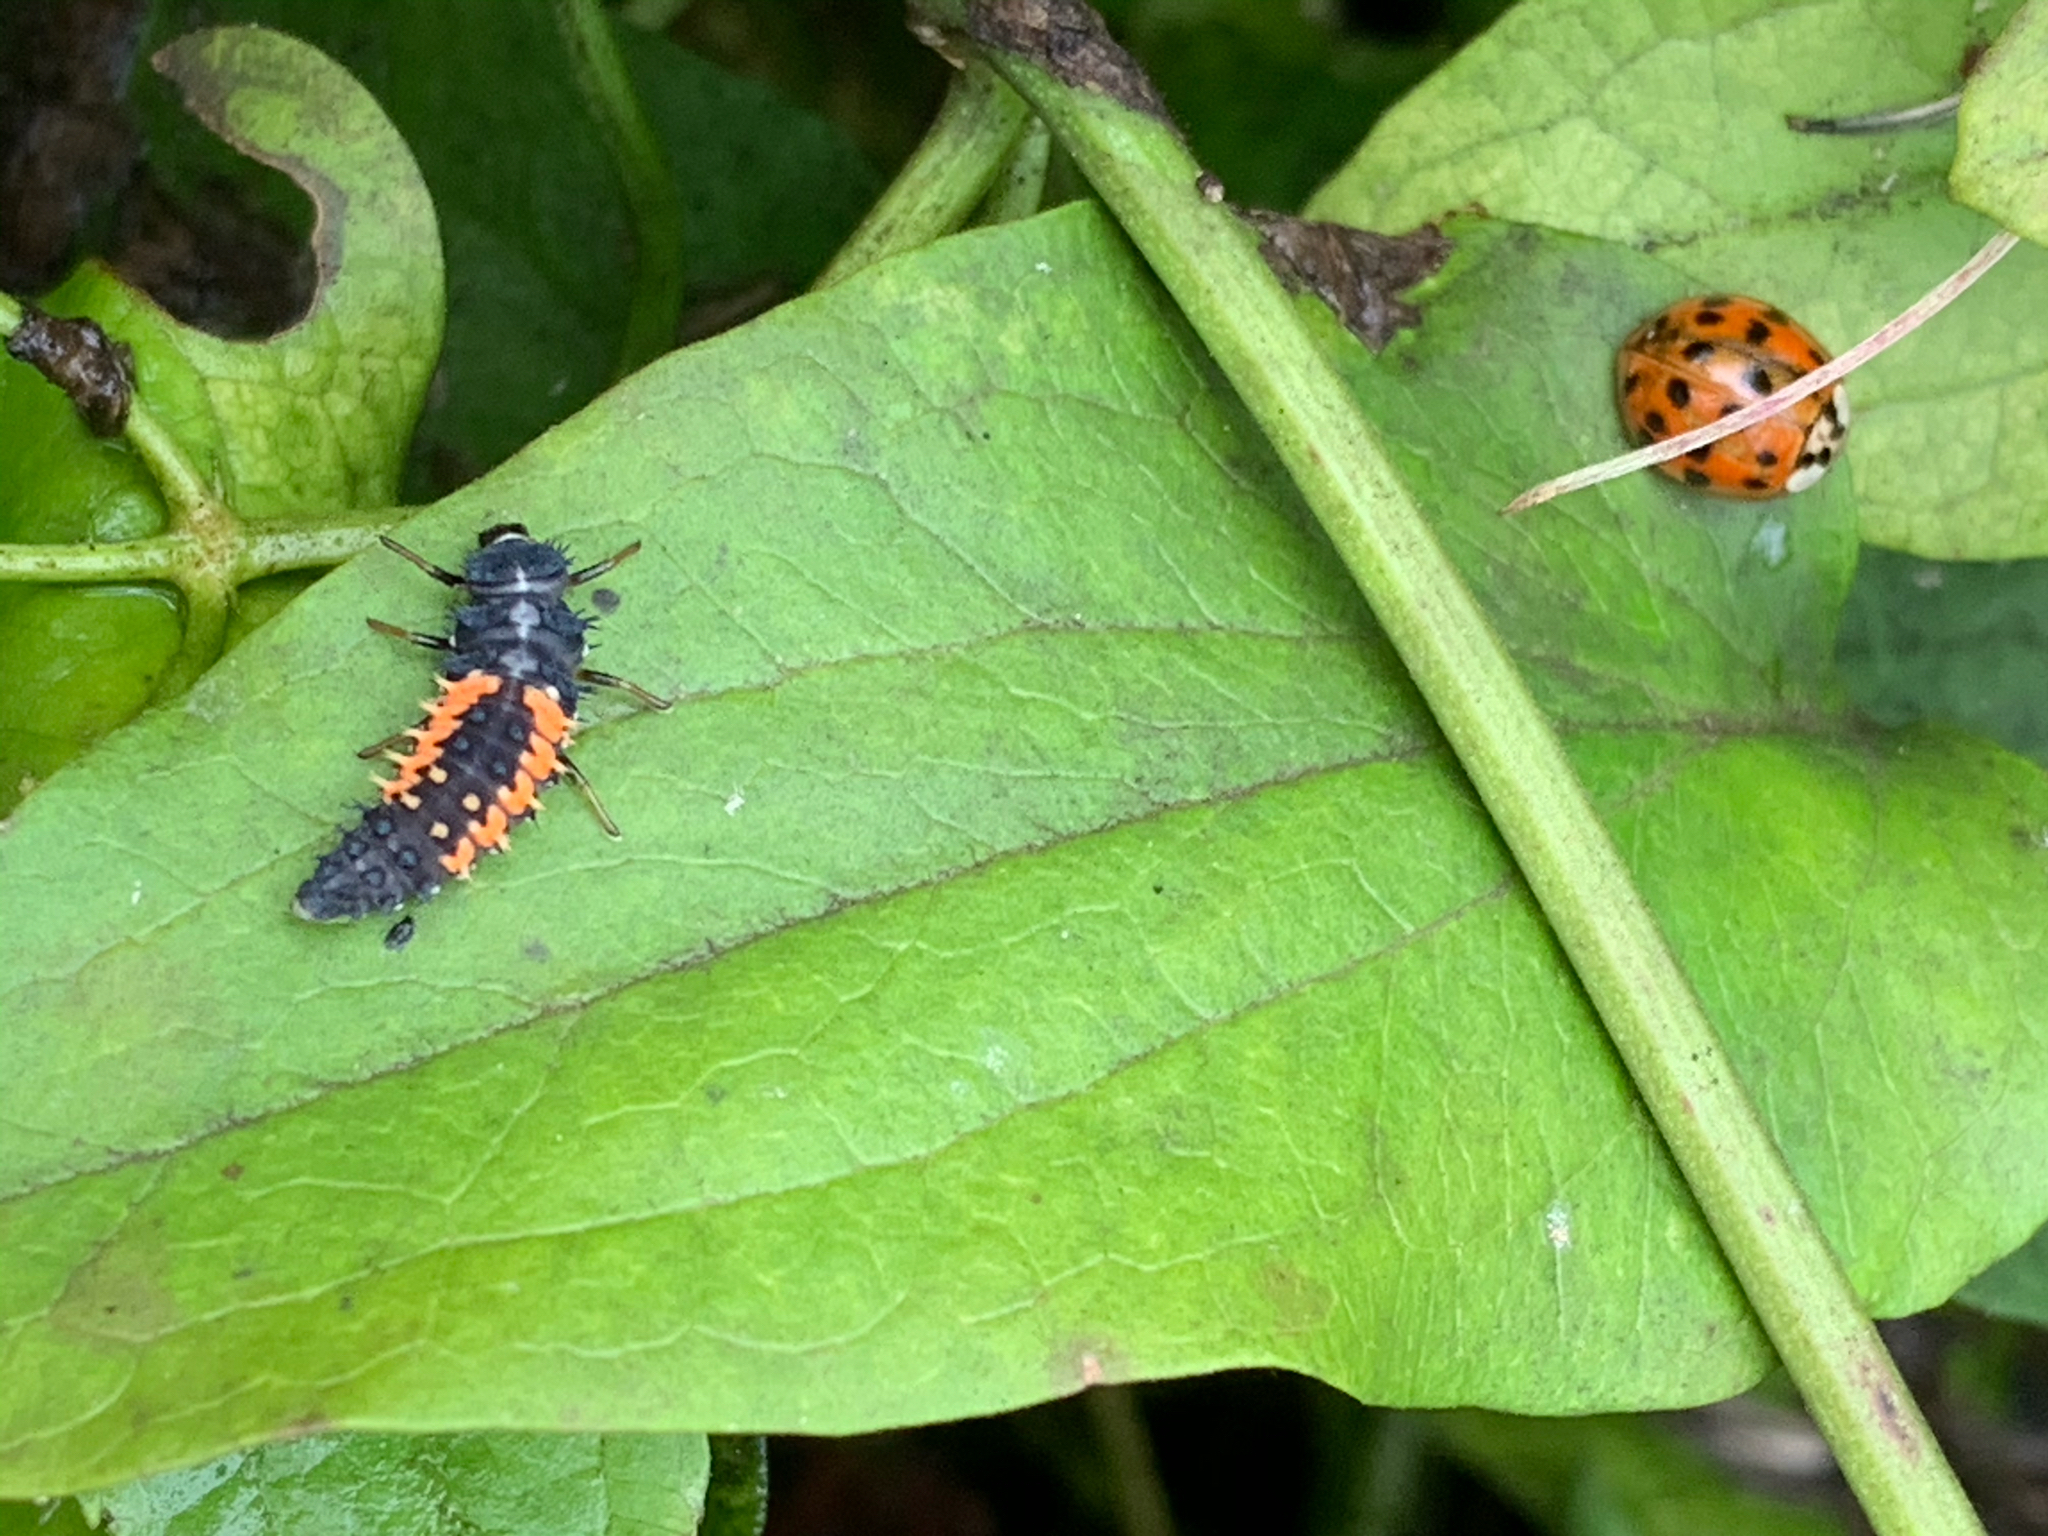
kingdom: Animalia
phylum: Arthropoda
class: Insecta
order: Coleoptera
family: Coccinellidae
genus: Harmonia
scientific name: Harmonia axyridis
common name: Harlequin ladybird
